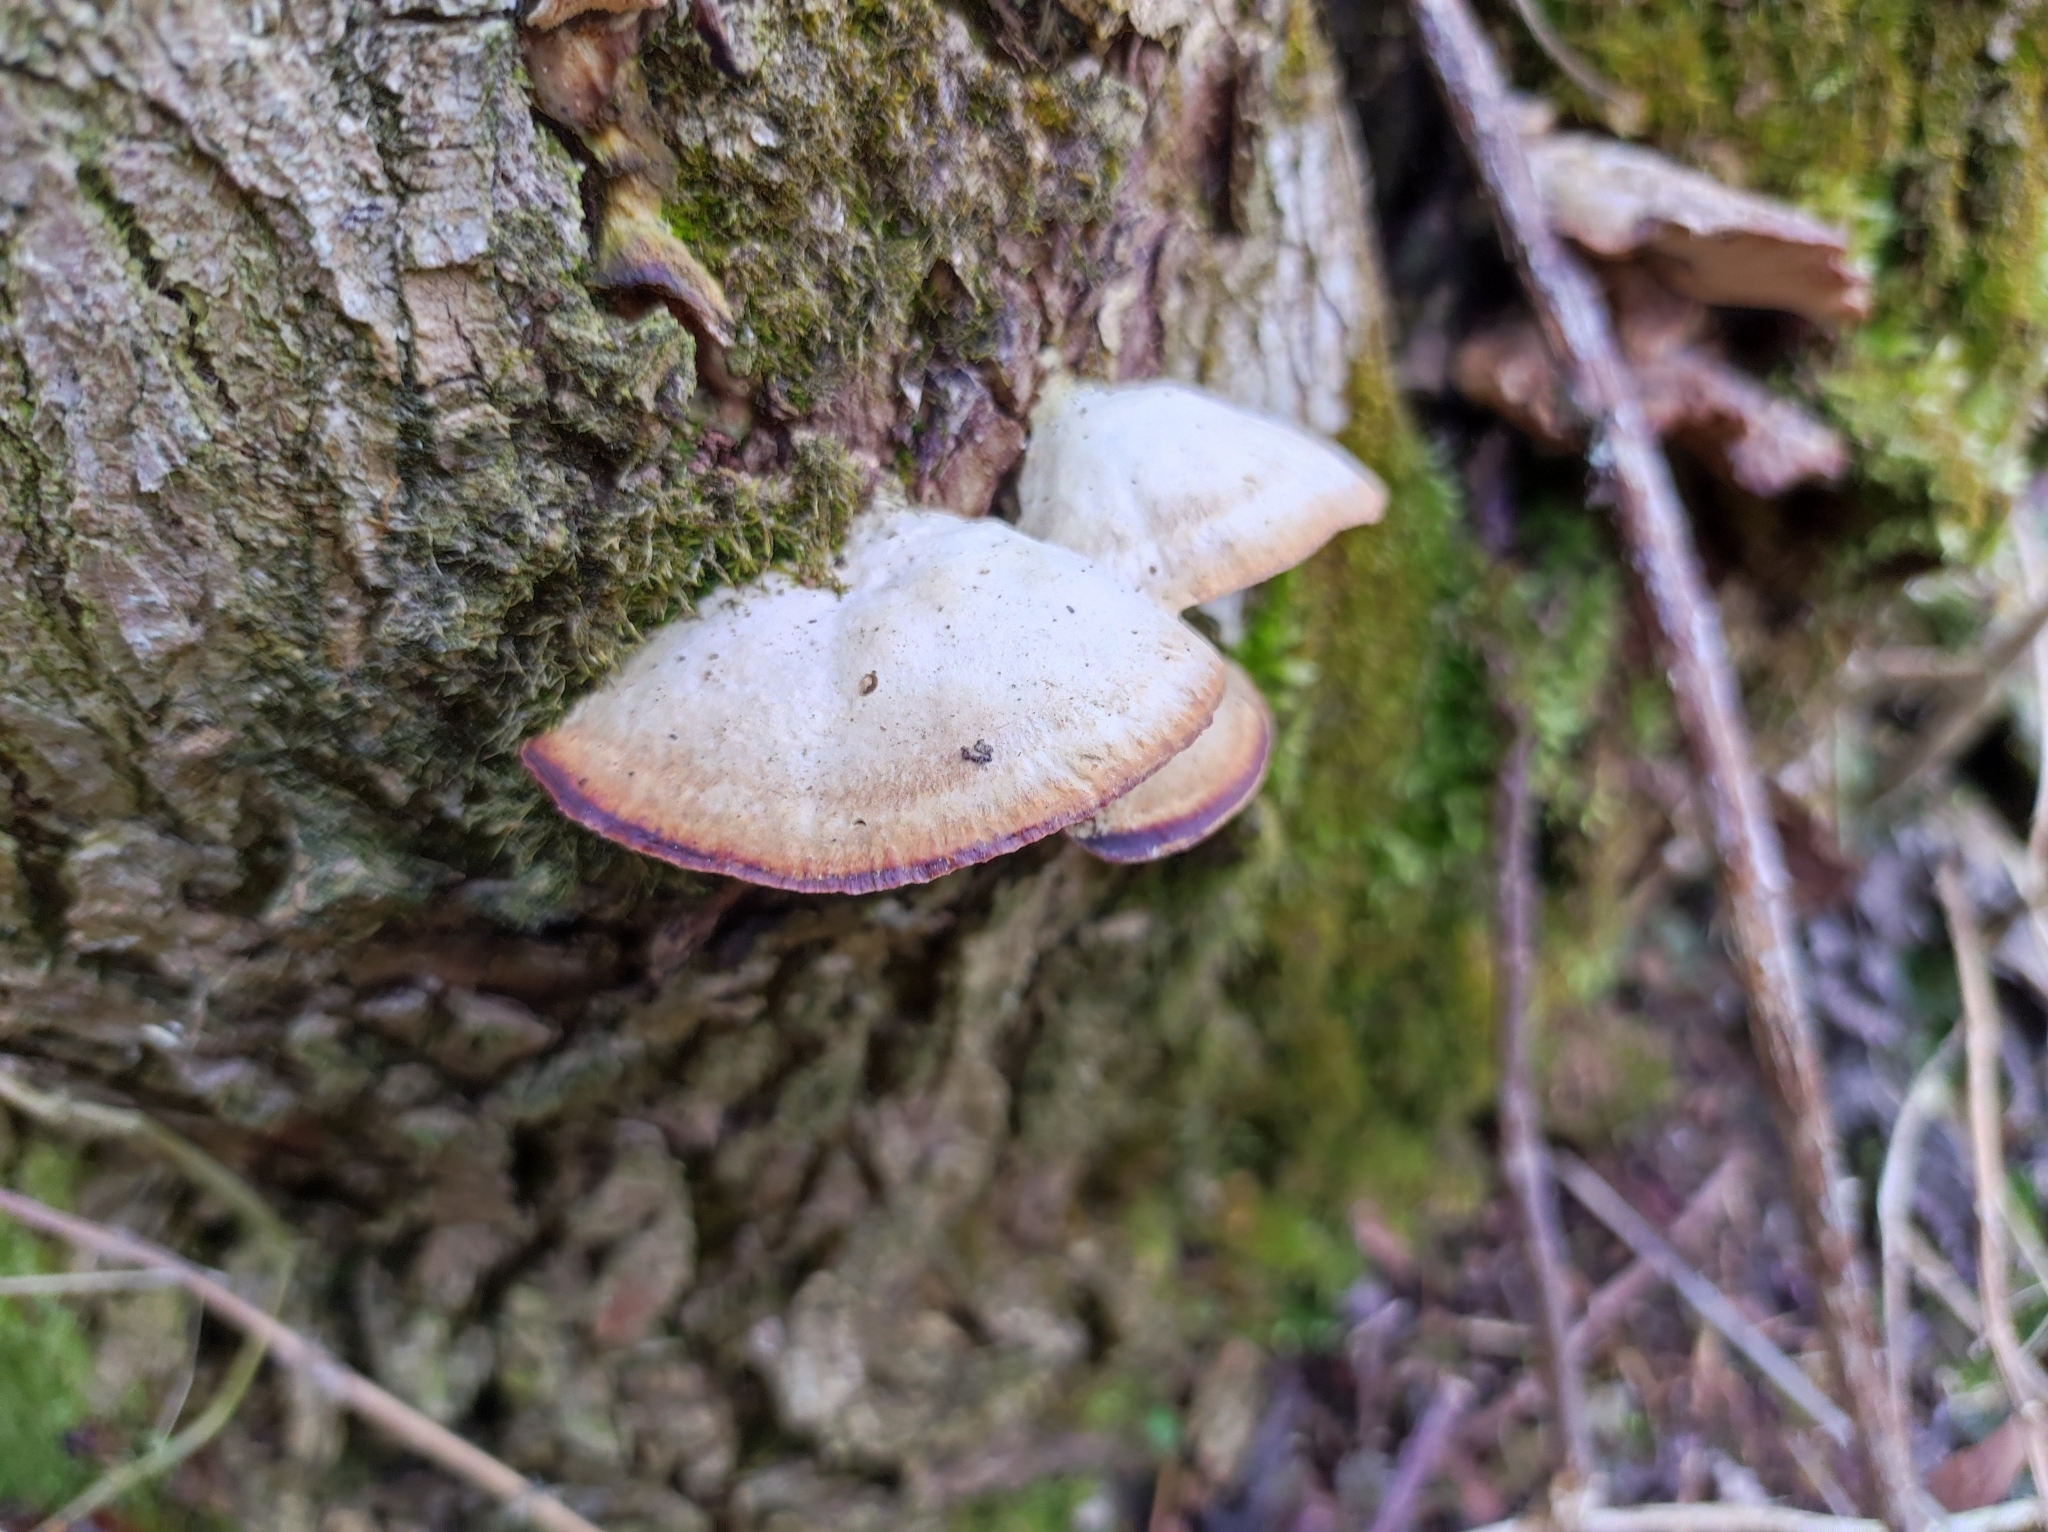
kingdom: Fungi
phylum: Basidiomycota
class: Agaricomycetes
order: Hymenochaetales
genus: Trichaptum
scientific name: Trichaptum biforme
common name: Violet-toothed polypore
